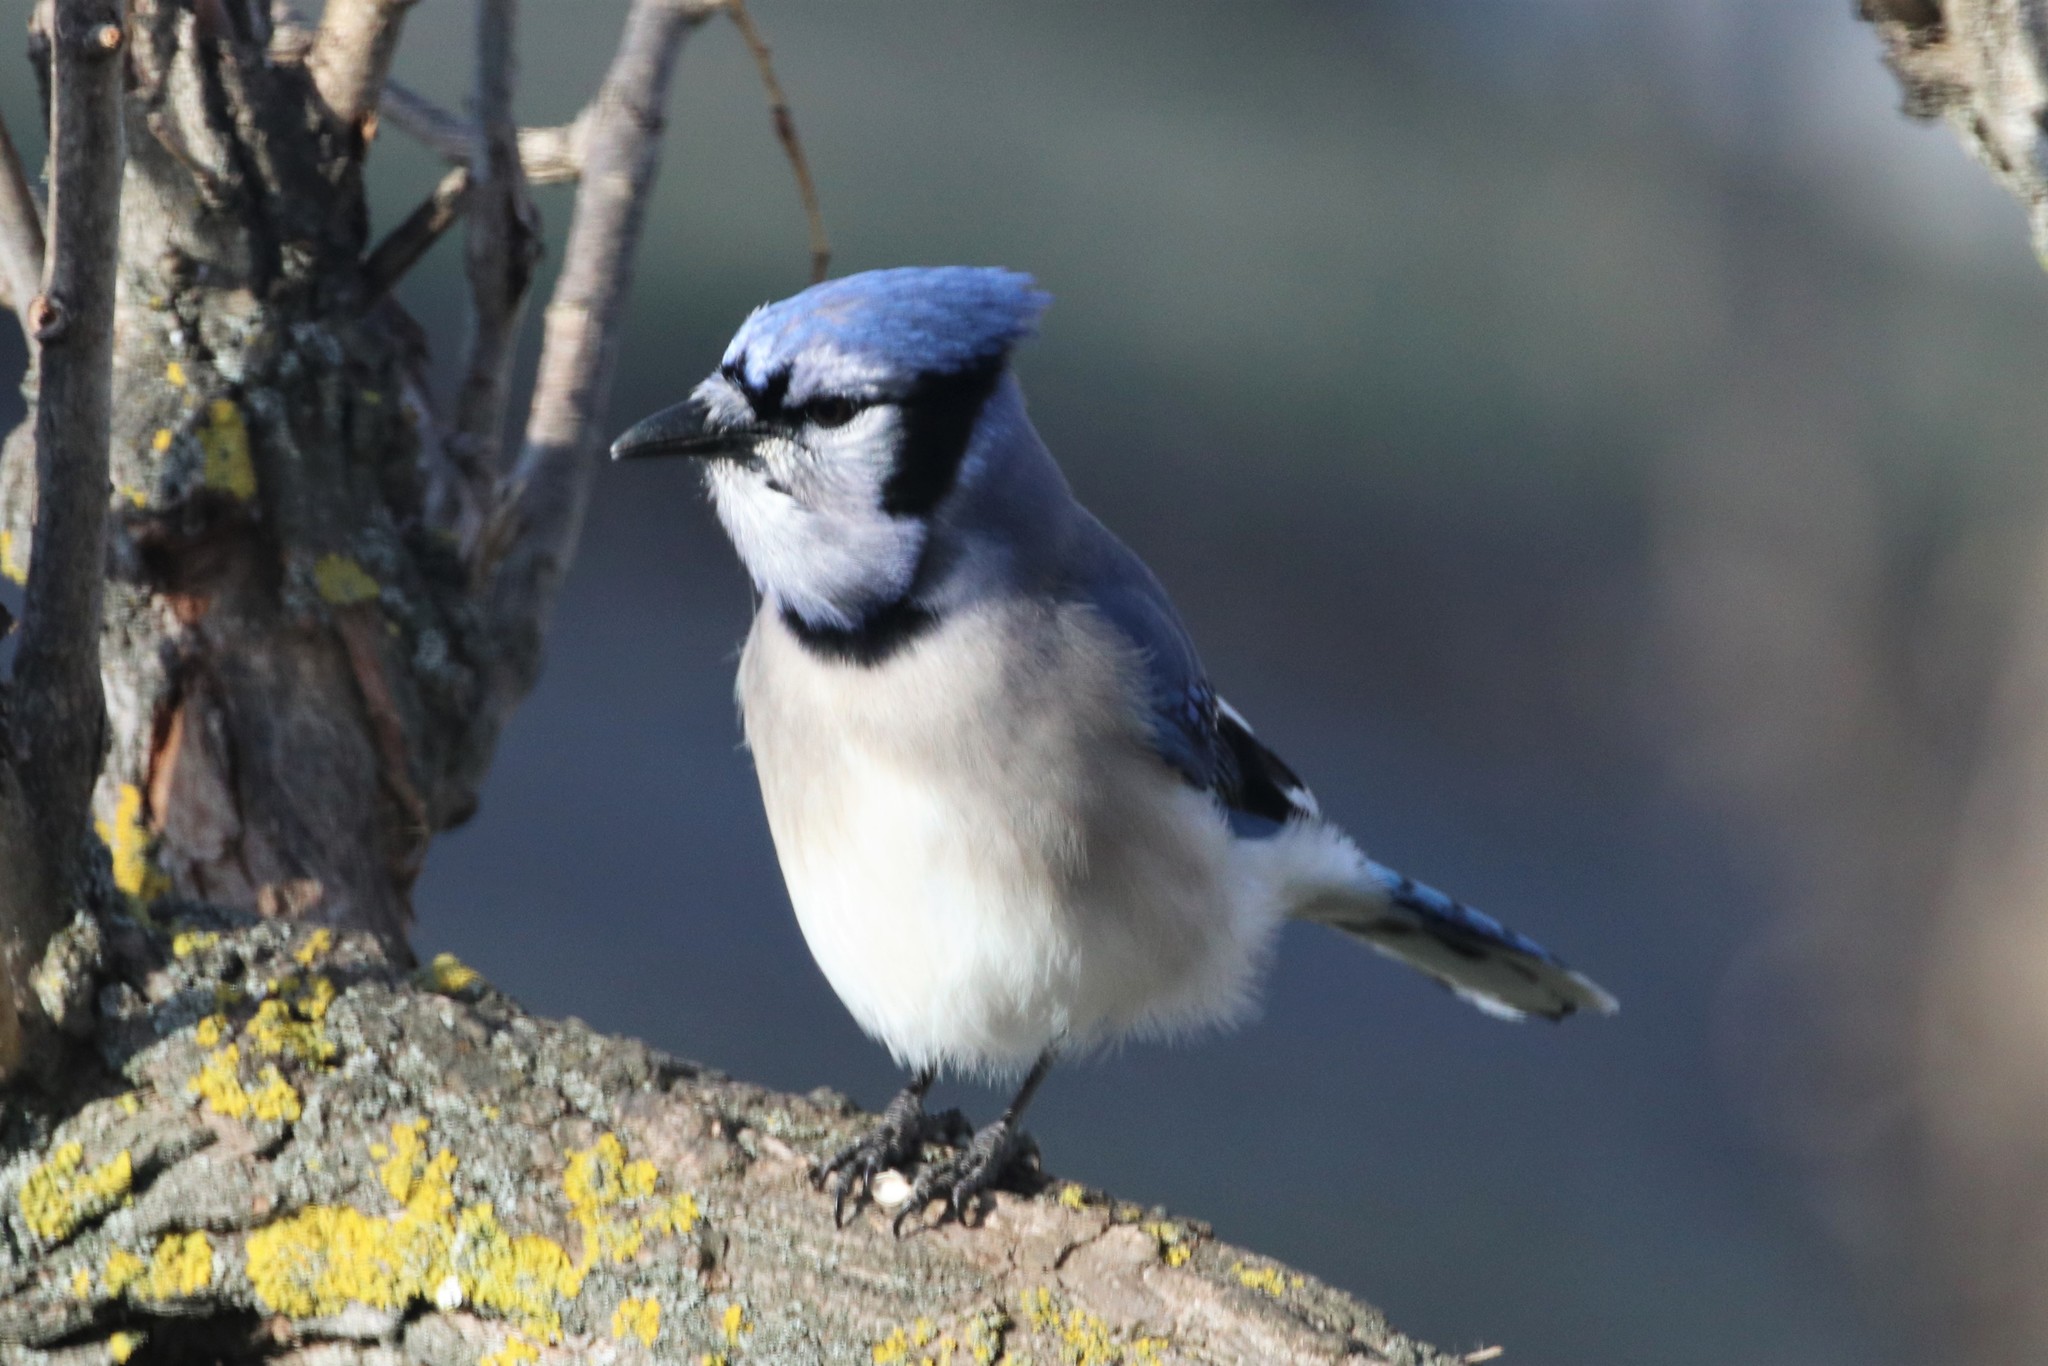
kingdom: Animalia
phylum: Chordata
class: Aves
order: Passeriformes
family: Corvidae
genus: Cyanocitta
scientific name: Cyanocitta cristata
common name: Blue jay
